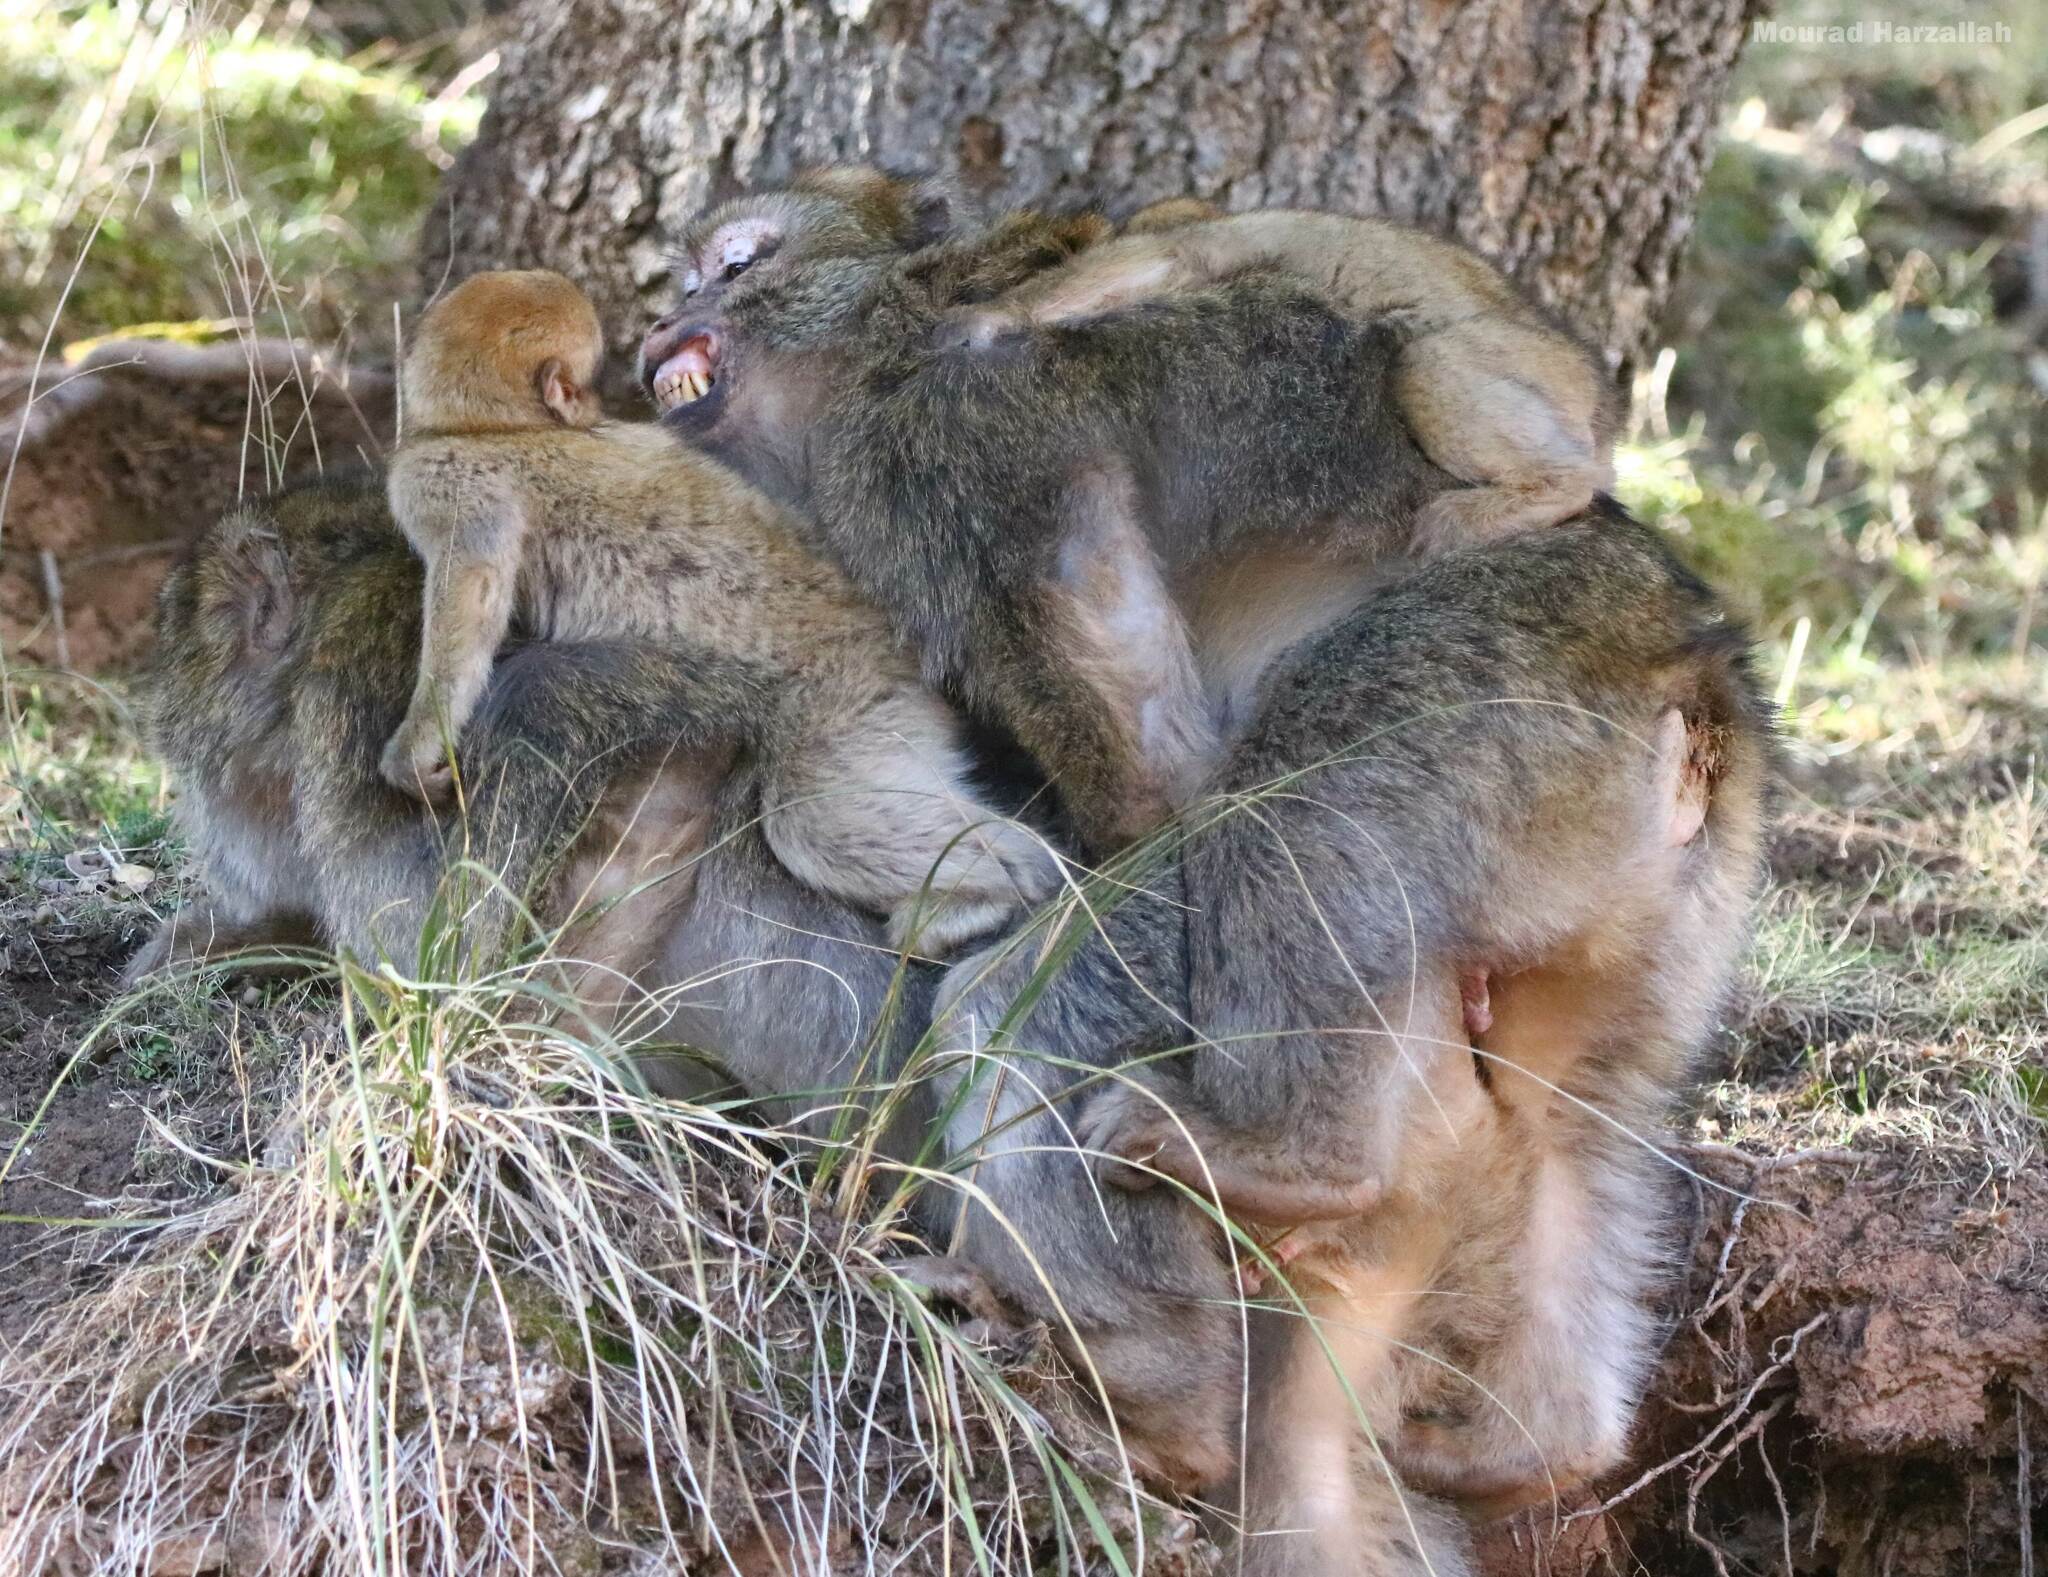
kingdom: Animalia
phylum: Chordata
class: Mammalia
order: Primates
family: Cercopithecidae
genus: Macaca
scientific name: Macaca sylvanus
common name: Barbary macaque
